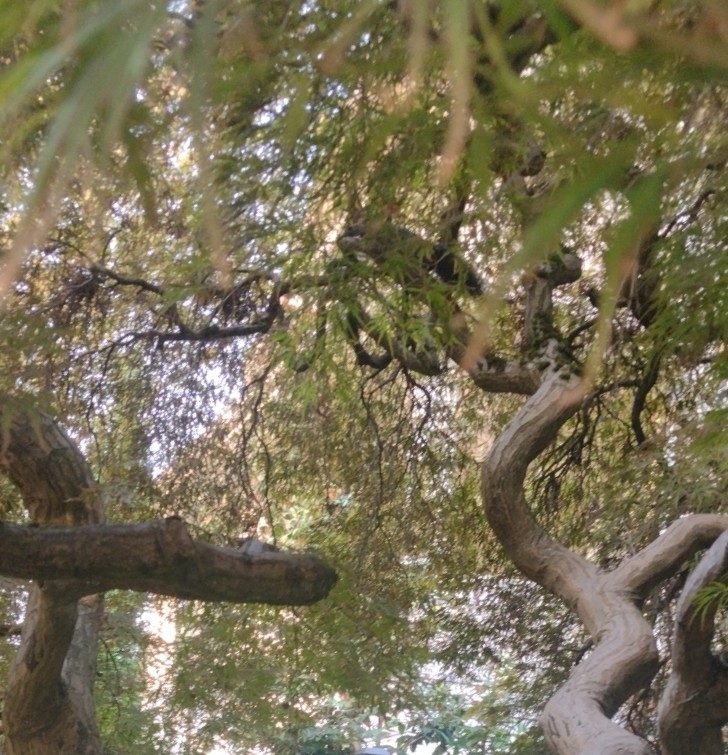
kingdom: Animalia
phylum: Chordata
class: Mammalia
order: Rodentia
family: Sciuridae
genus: Sciurus
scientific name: Sciurus carolinensis
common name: Eastern gray squirrel
